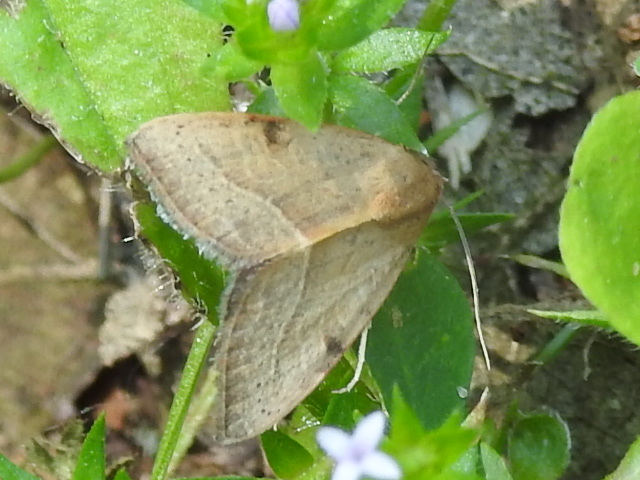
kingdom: Animalia
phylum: Arthropoda
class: Insecta
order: Lepidoptera
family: Noctuidae
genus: Galgula
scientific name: Galgula partita
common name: Wedgeling
